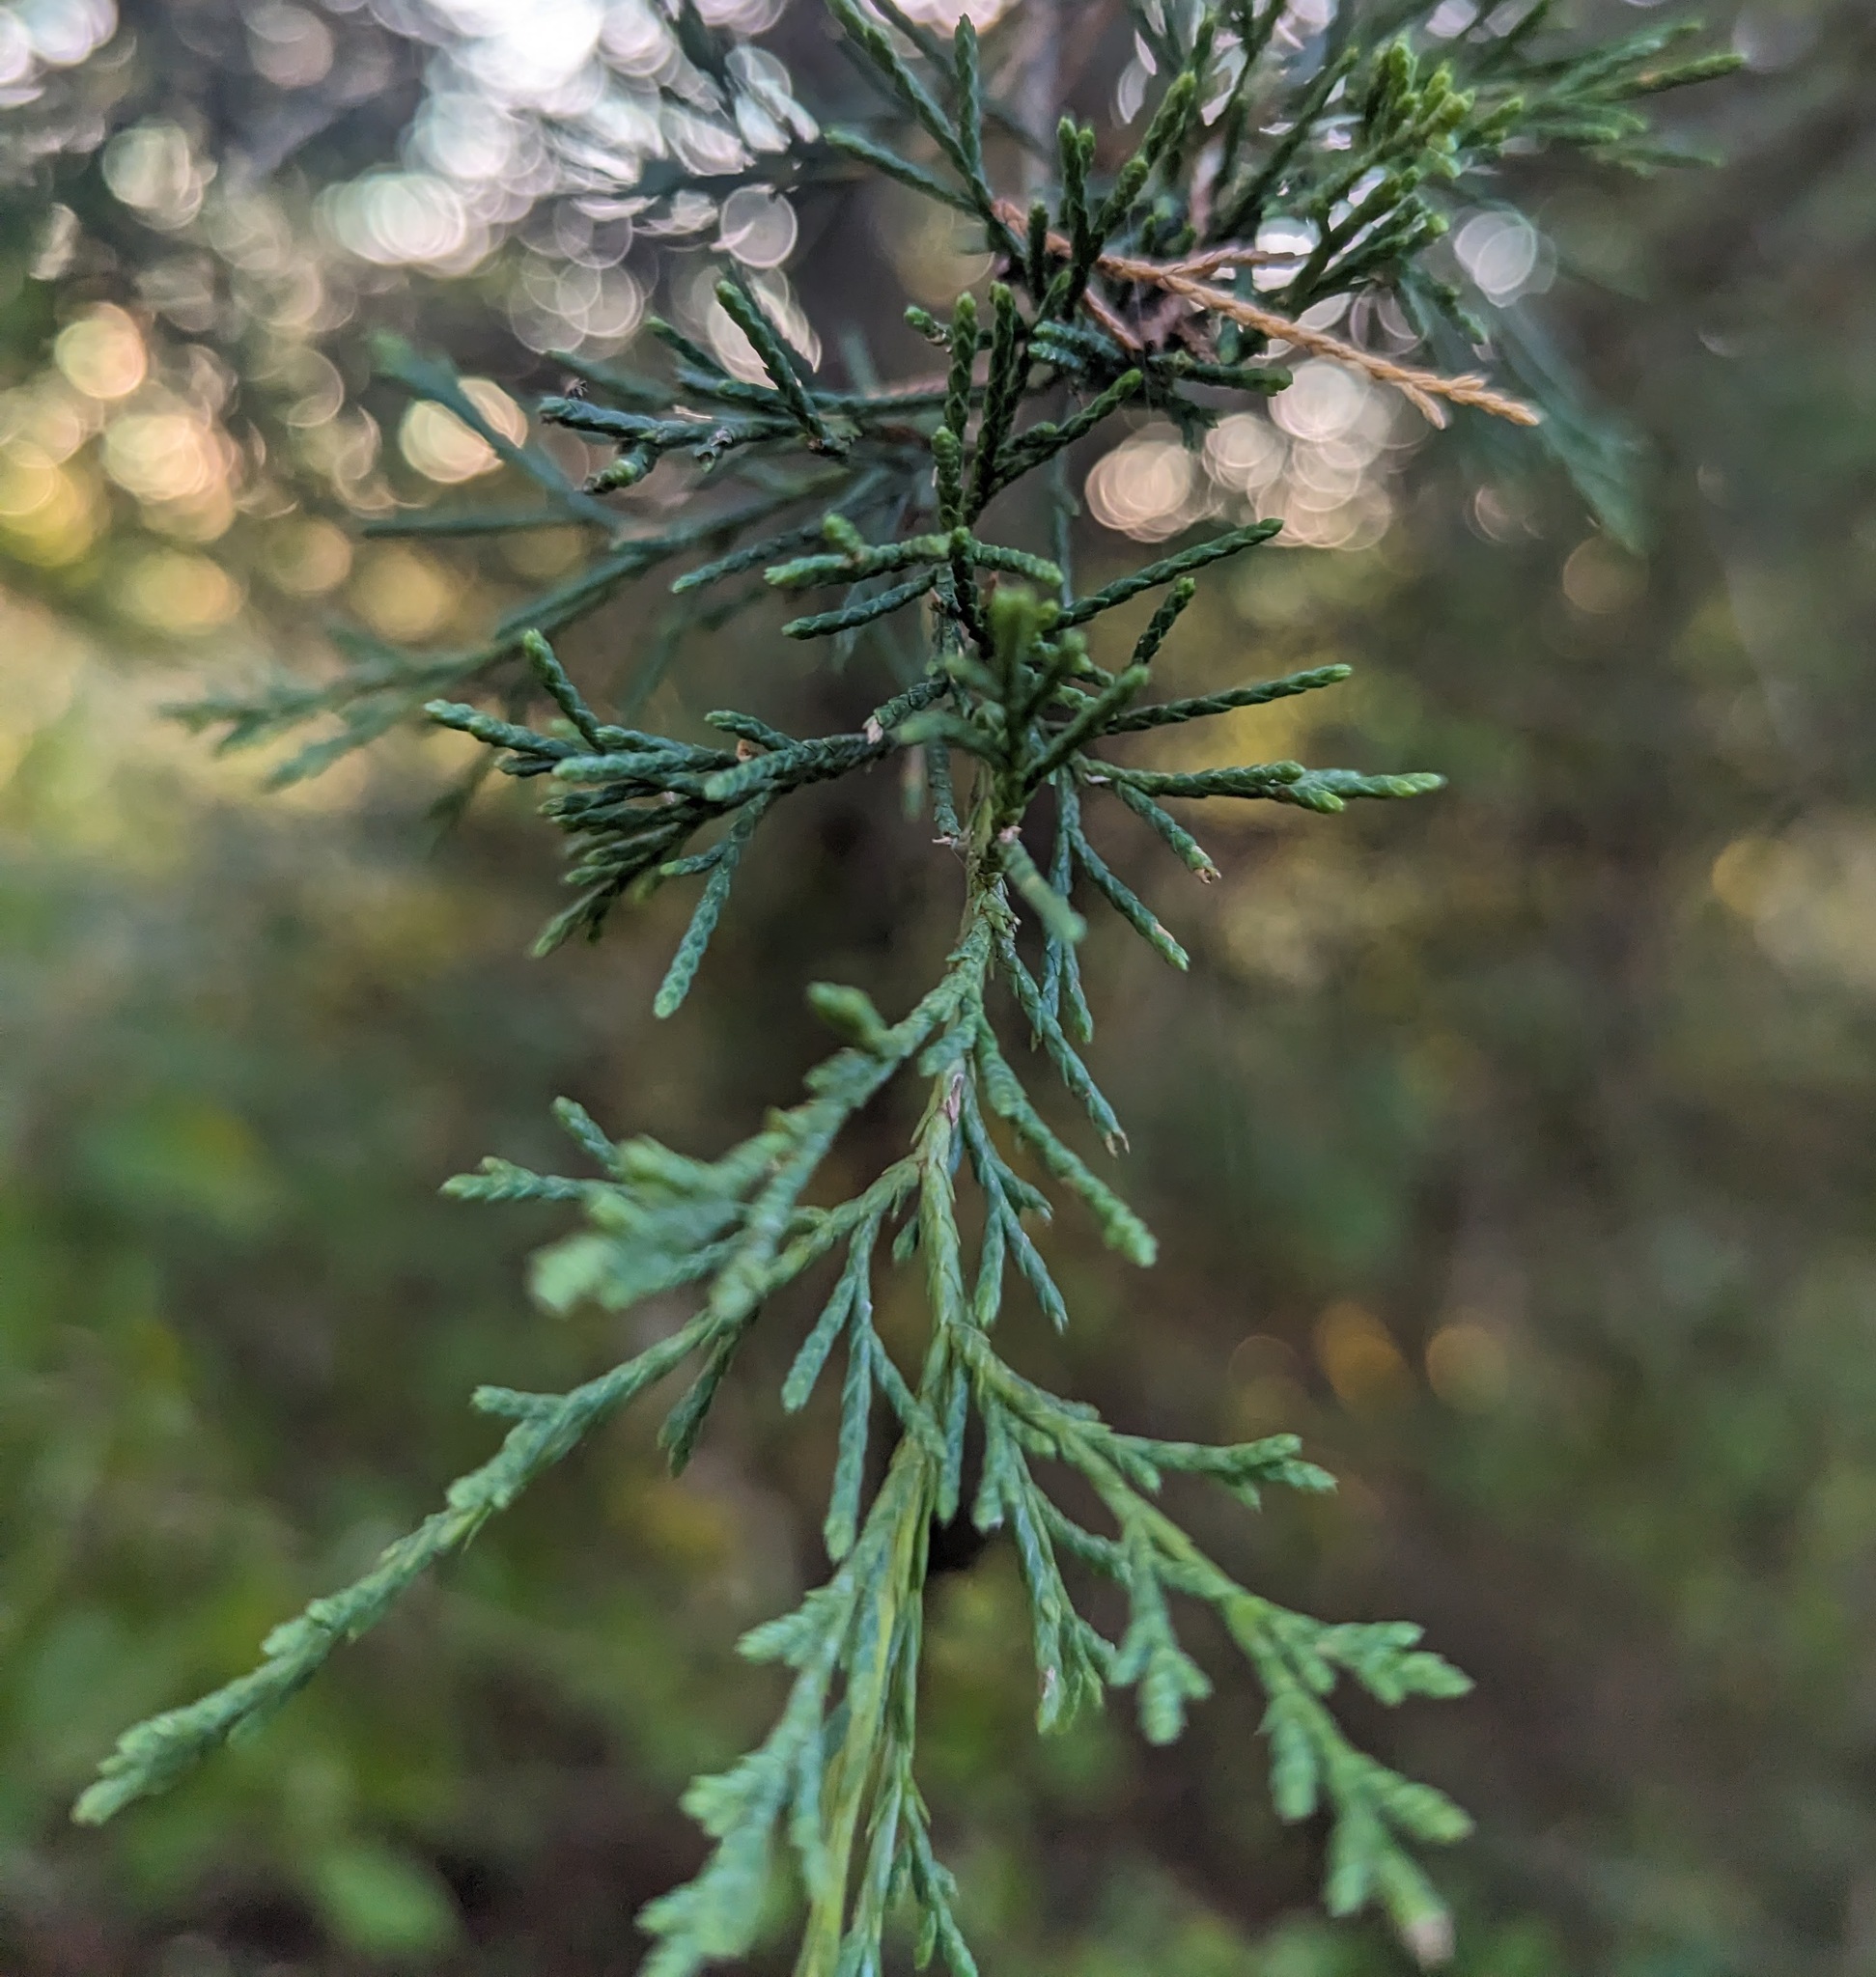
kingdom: Plantae
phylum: Tracheophyta
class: Pinopsida
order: Pinales
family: Cupressaceae
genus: Juniperus
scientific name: Juniperus virginiana
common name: Red juniper
